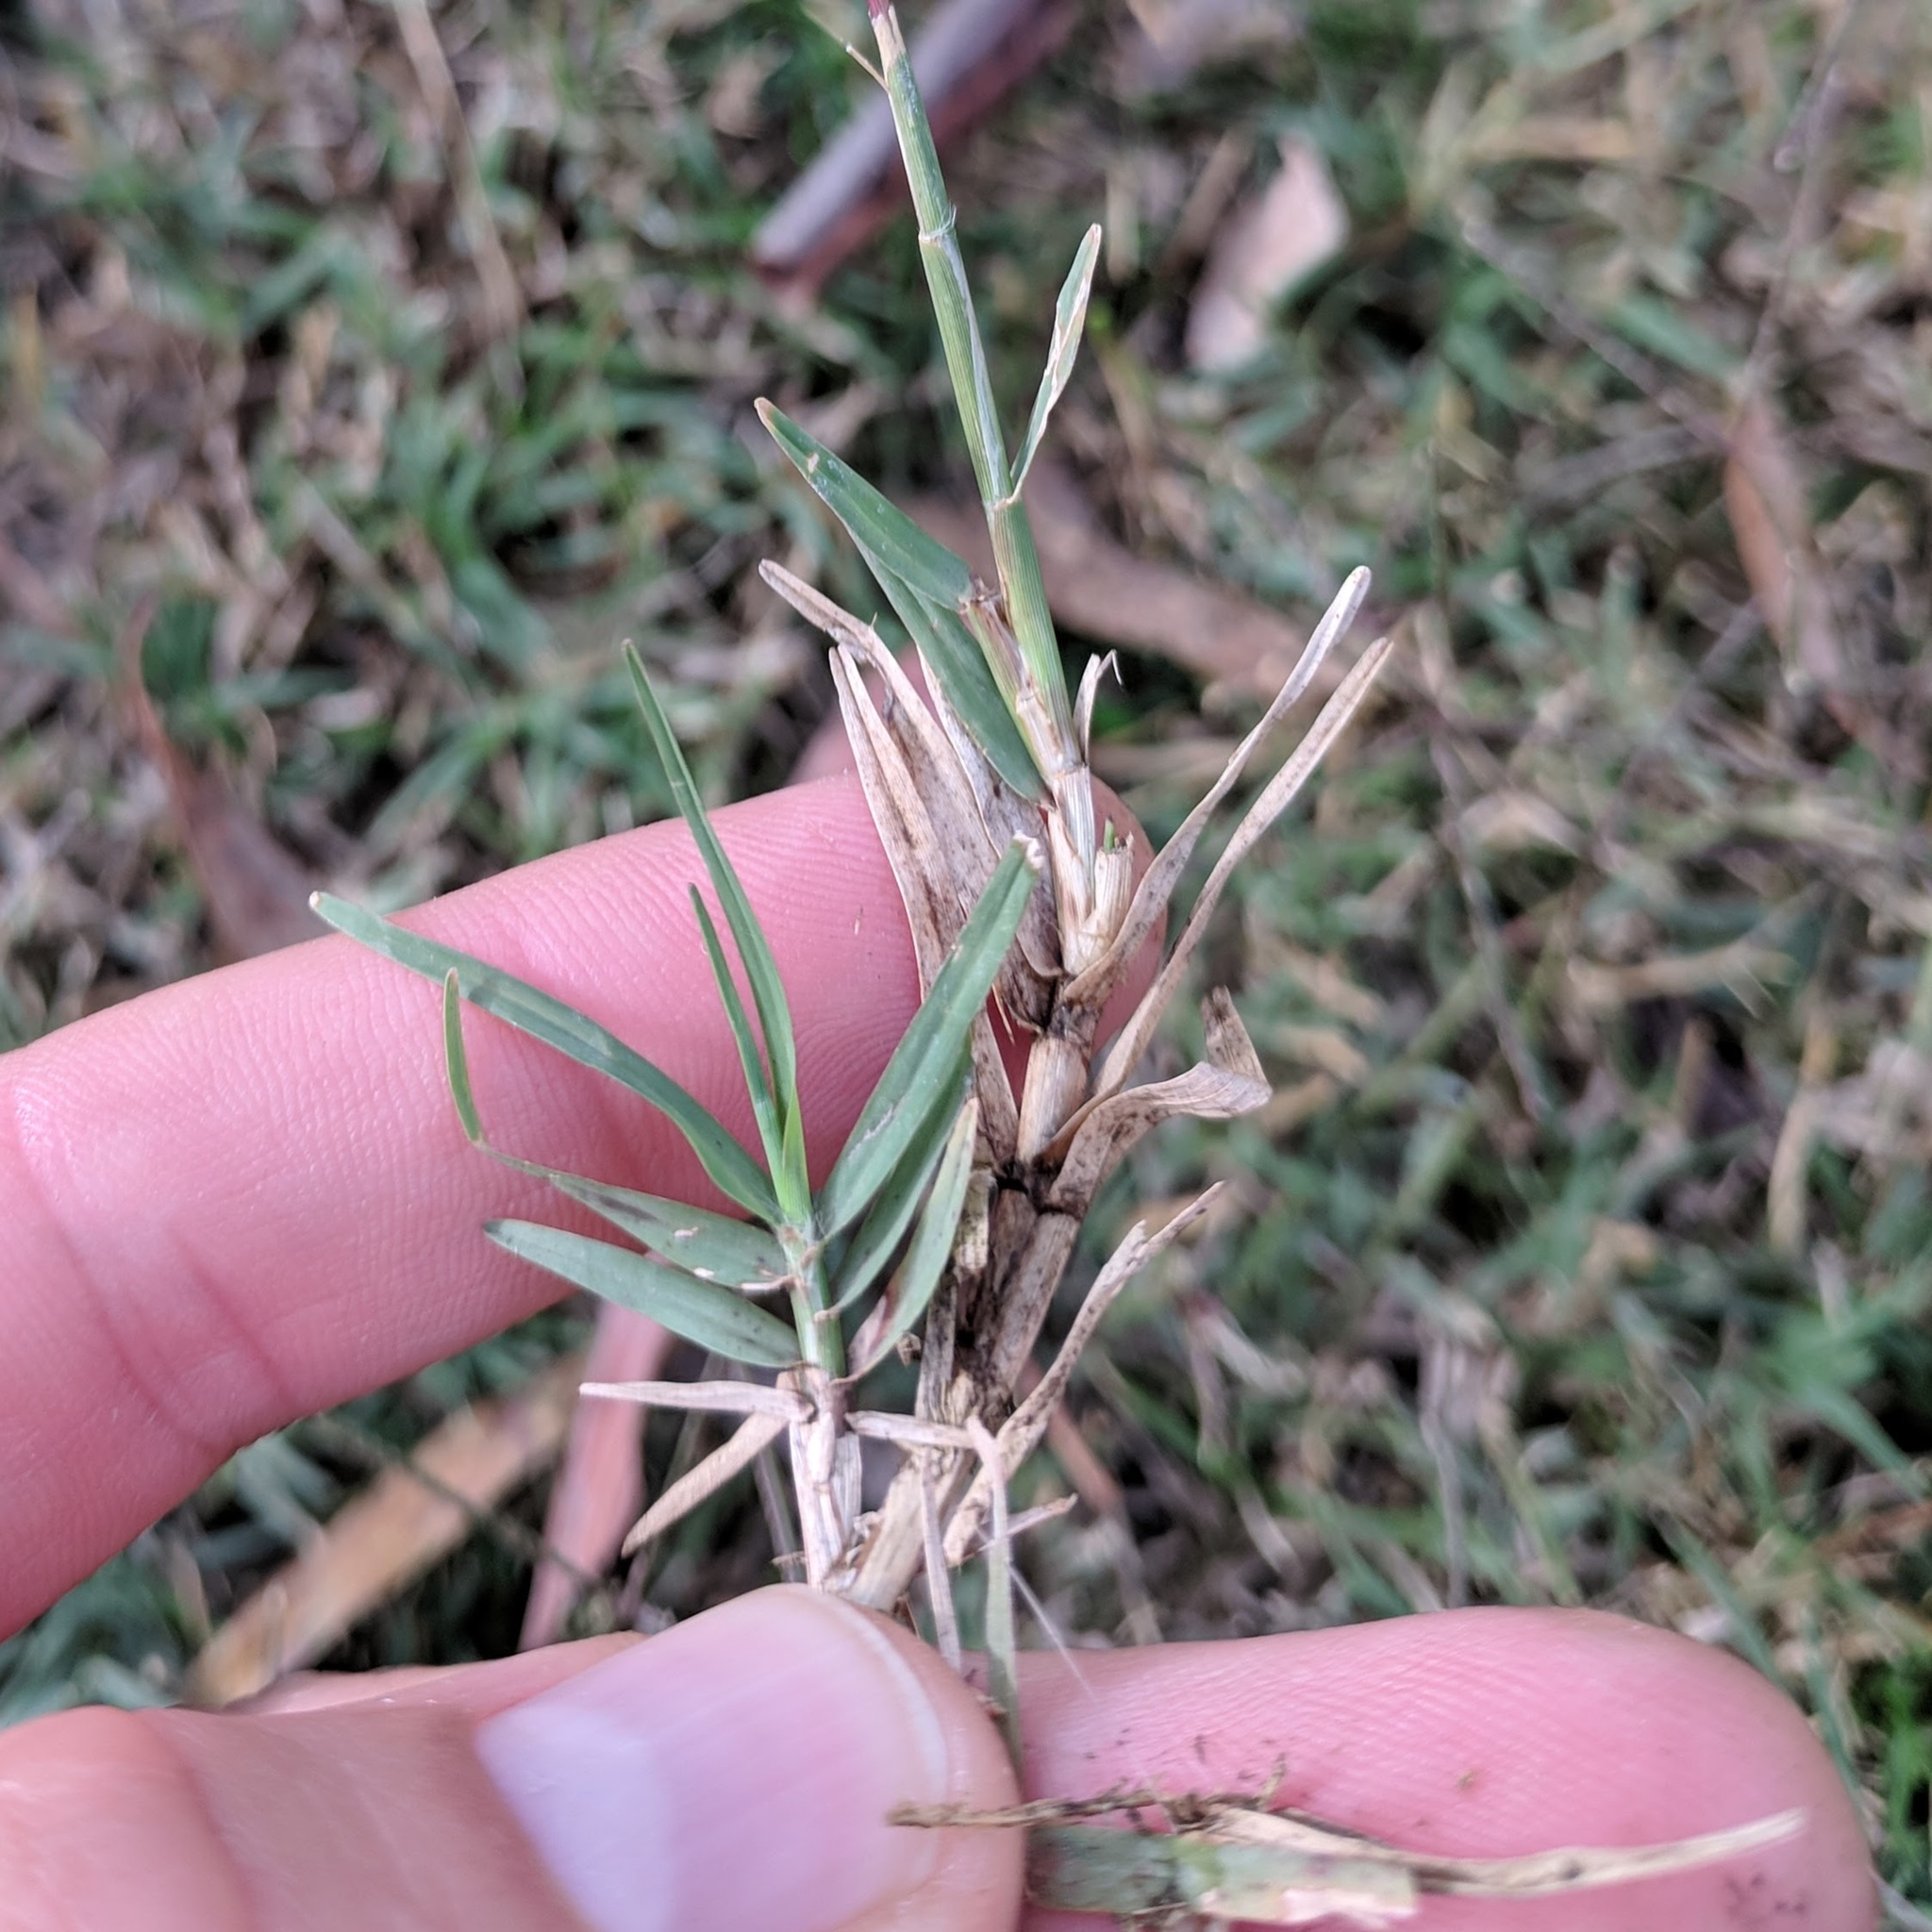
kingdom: Plantae
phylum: Tracheophyta
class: Liliopsida
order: Poales
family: Poaceae
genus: Cynodon
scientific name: Cynodon dactylon
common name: Bermuda grass
